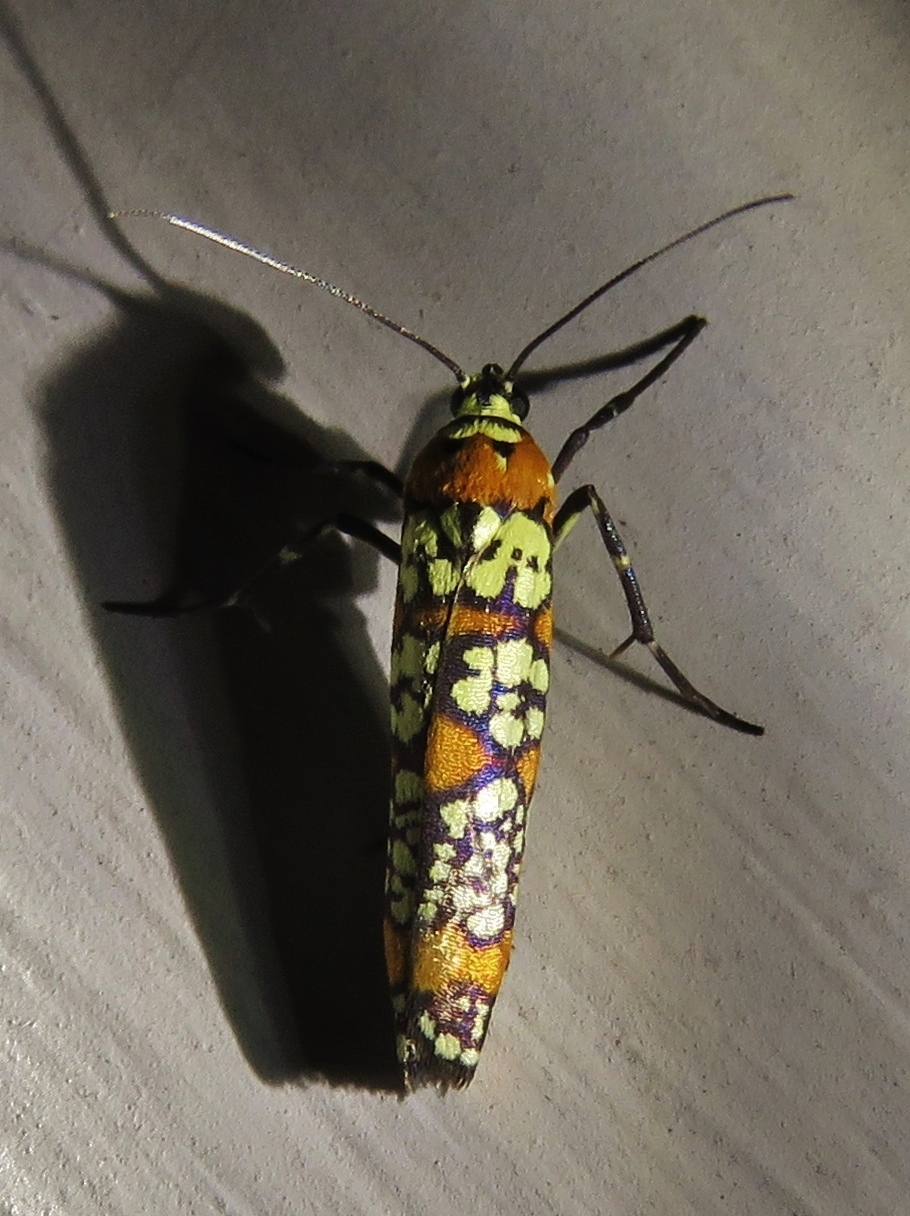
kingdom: Animalia
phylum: Arthropoda
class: Insecta
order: Lepidoptera
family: Attevidae
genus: Atteva
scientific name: Atteva punctella
